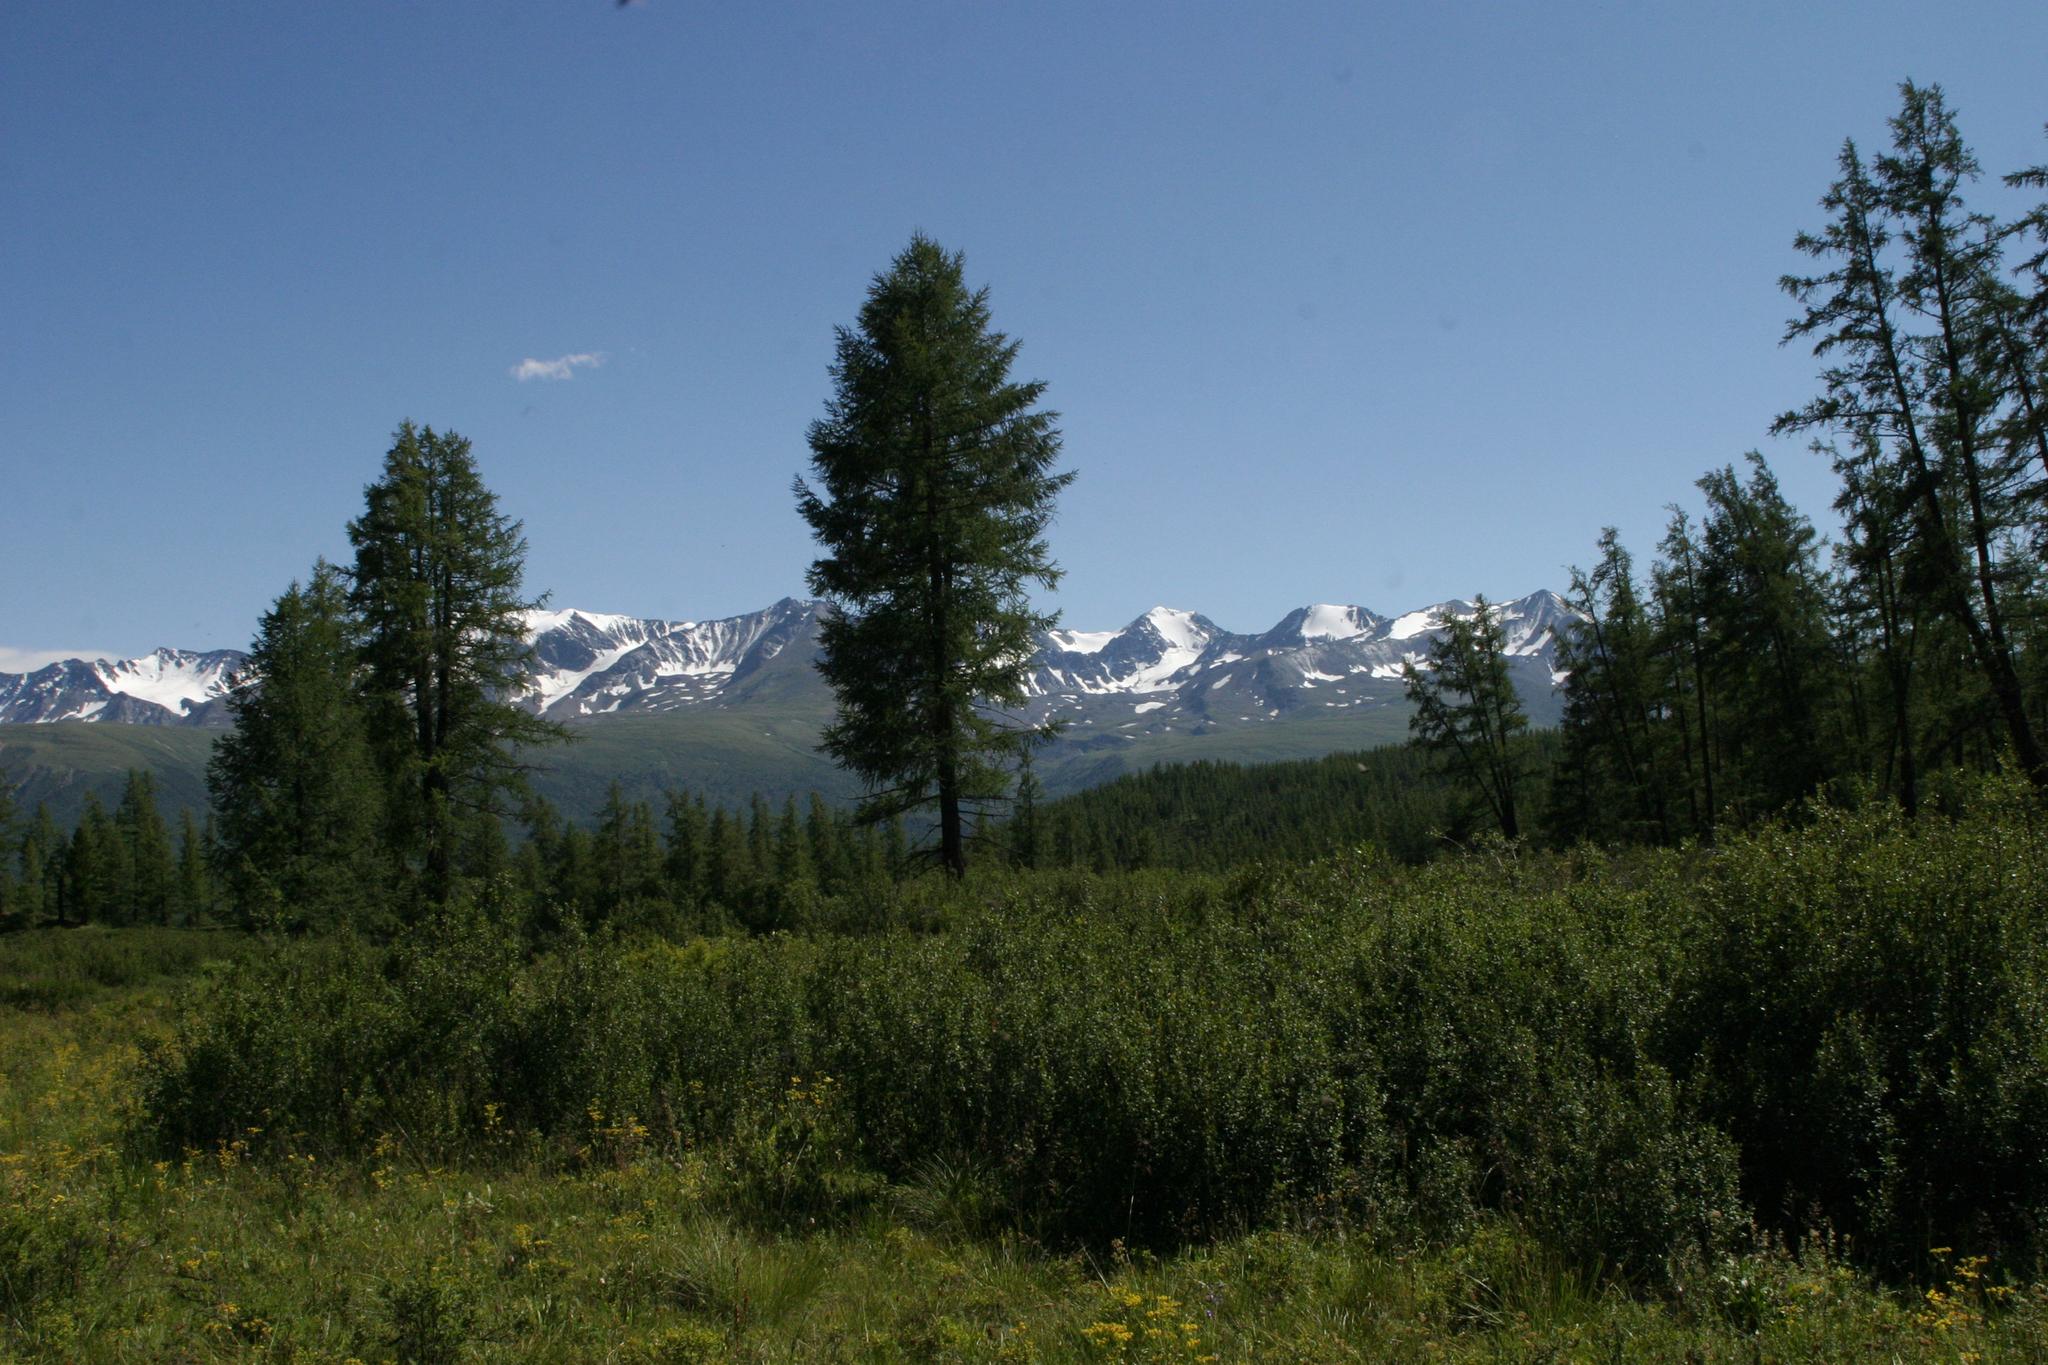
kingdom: Plantae
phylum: Tracheophyta
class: Magnoliopsida
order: Fagales
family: Betulaceae
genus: Betula
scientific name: Betula glandulosa
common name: Dwarf birch
